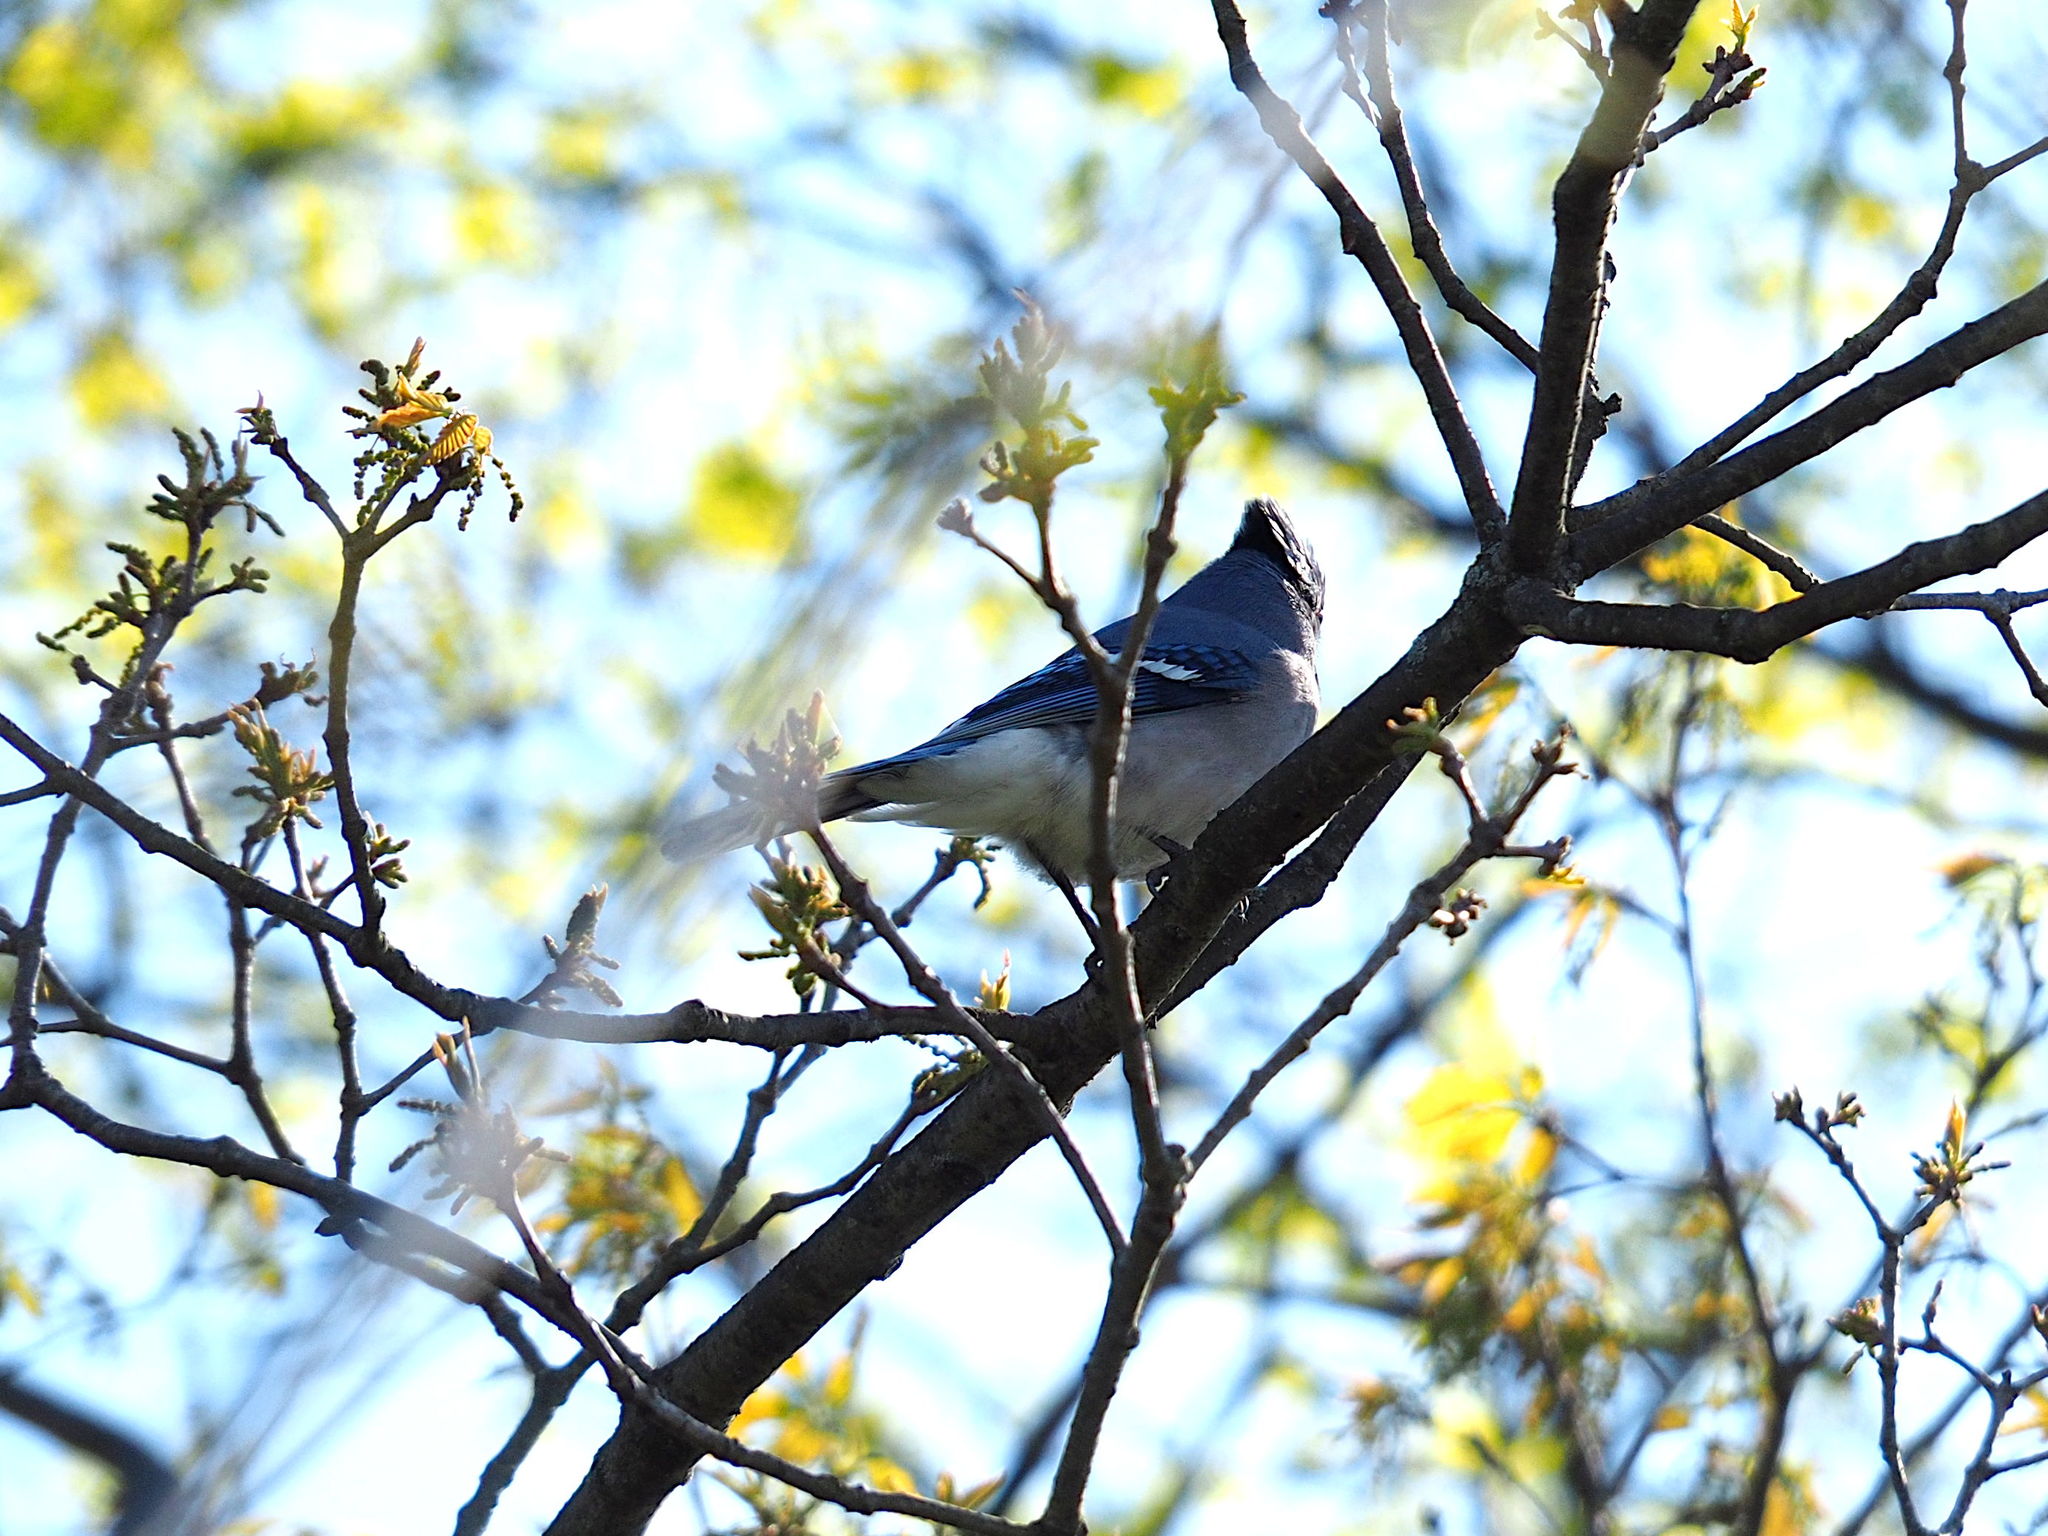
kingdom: Animalia
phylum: Chordata
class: Aves
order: Passeriformes
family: Corvidae
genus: Cyanocitta
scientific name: Cyanocitta cristata
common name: Blue jay
